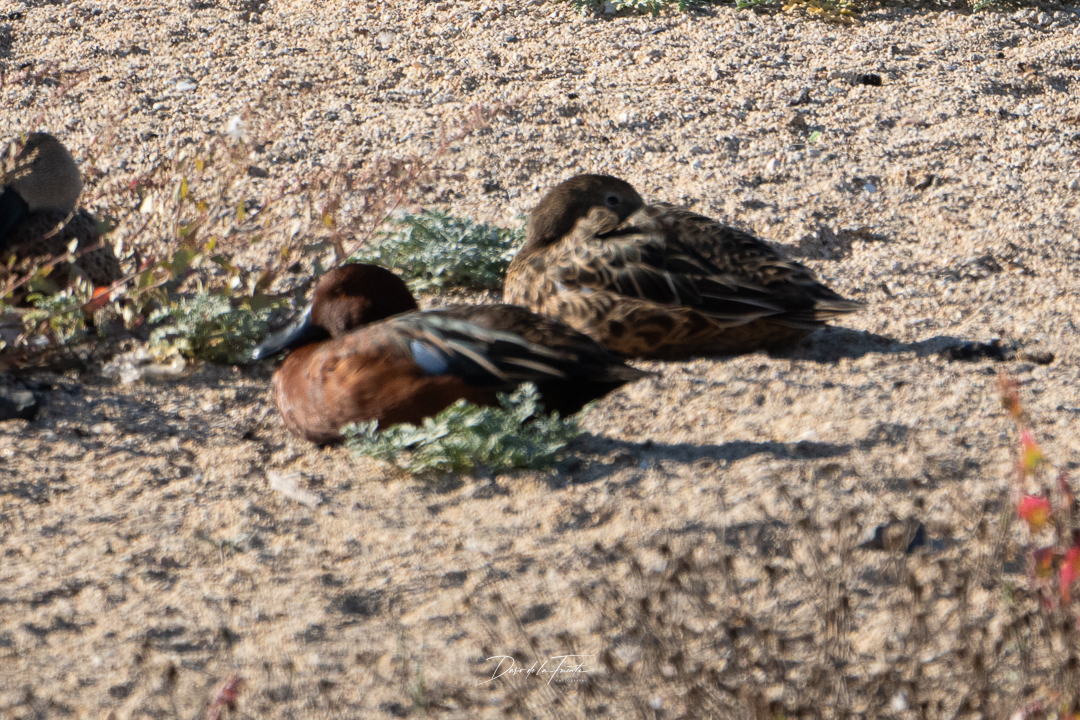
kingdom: Animalia
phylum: Chordata
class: Aves
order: Anseriformes
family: Anatidae
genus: Spatula
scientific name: Spatula cyanoptera
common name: Cinnamon teal
